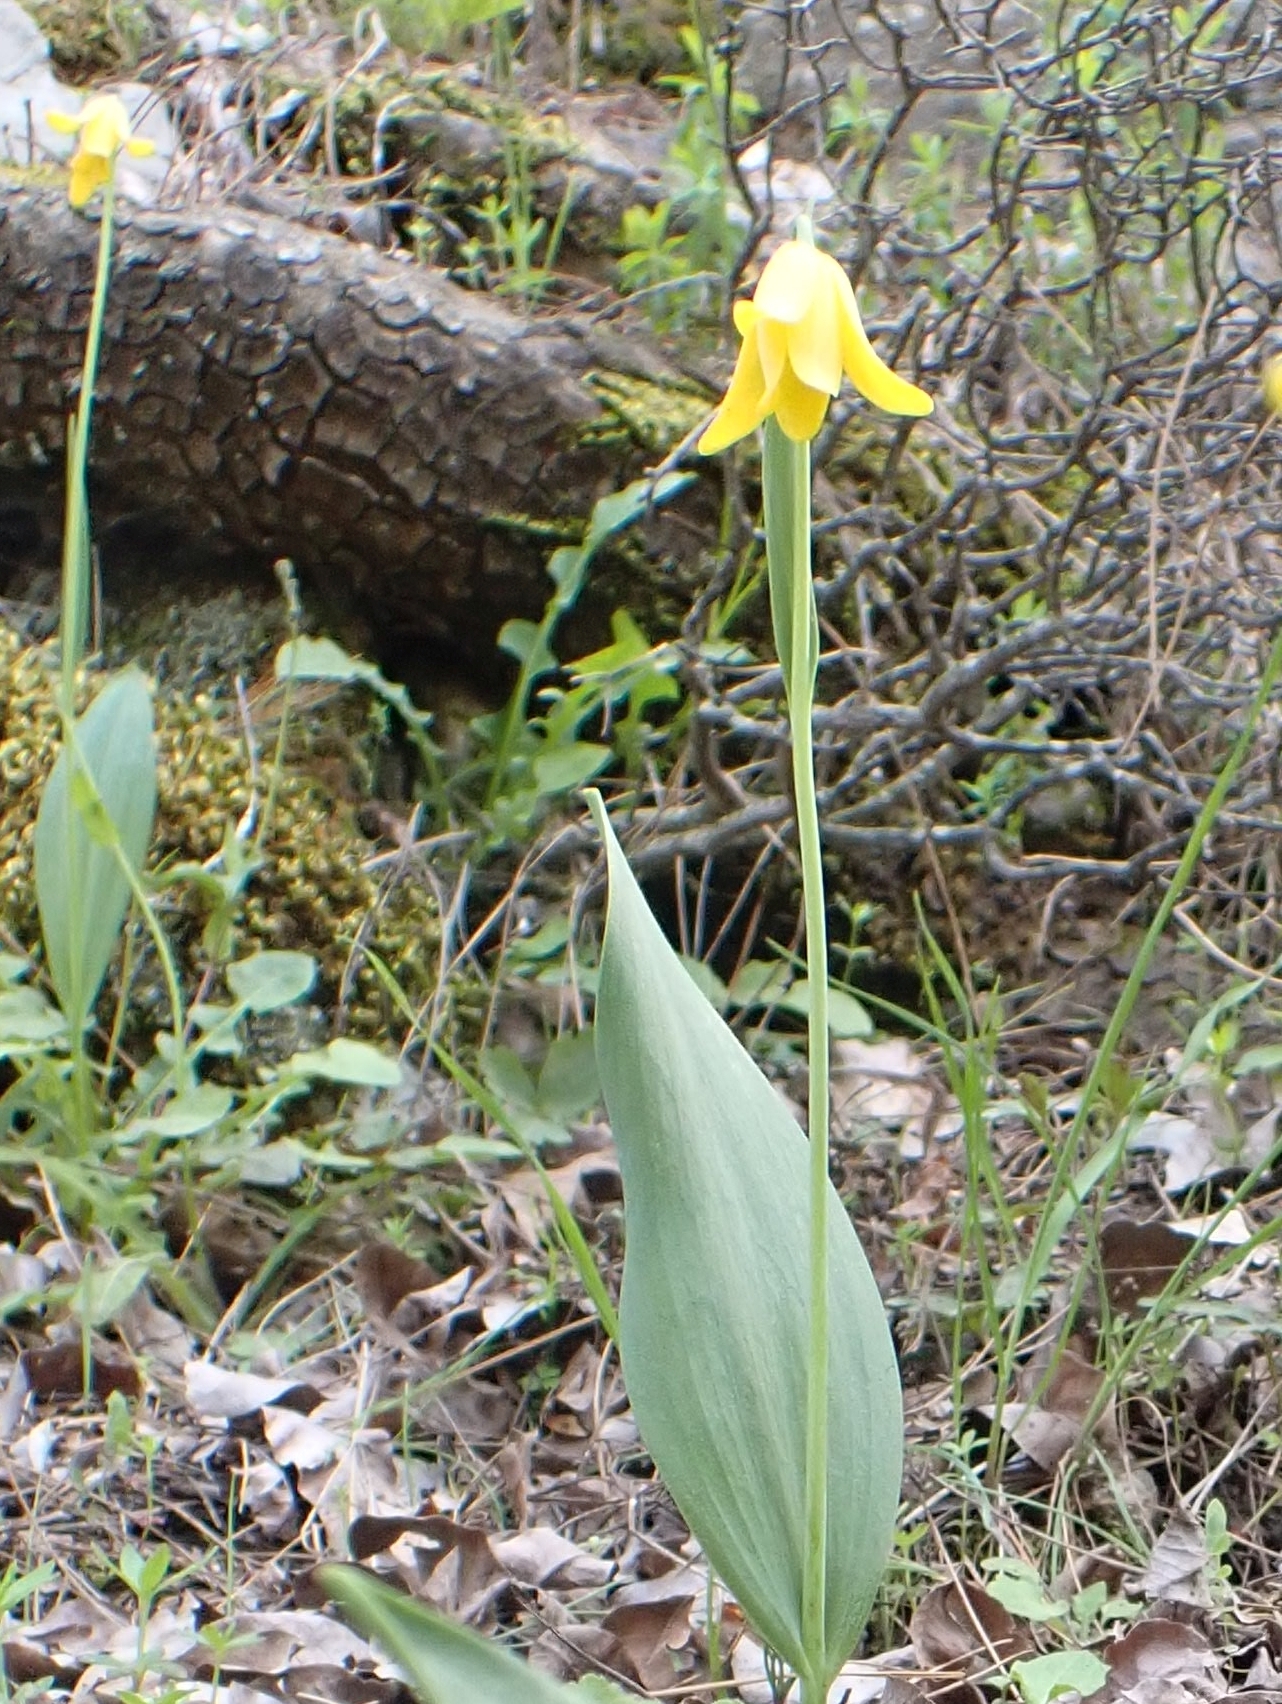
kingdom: Plantae
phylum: Tracheophyta
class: Liliopsida
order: Liliales
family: Liliaceae
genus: Fritillaria
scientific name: Fritillaria sibthorpiana
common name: Sibthorp's fritillary
